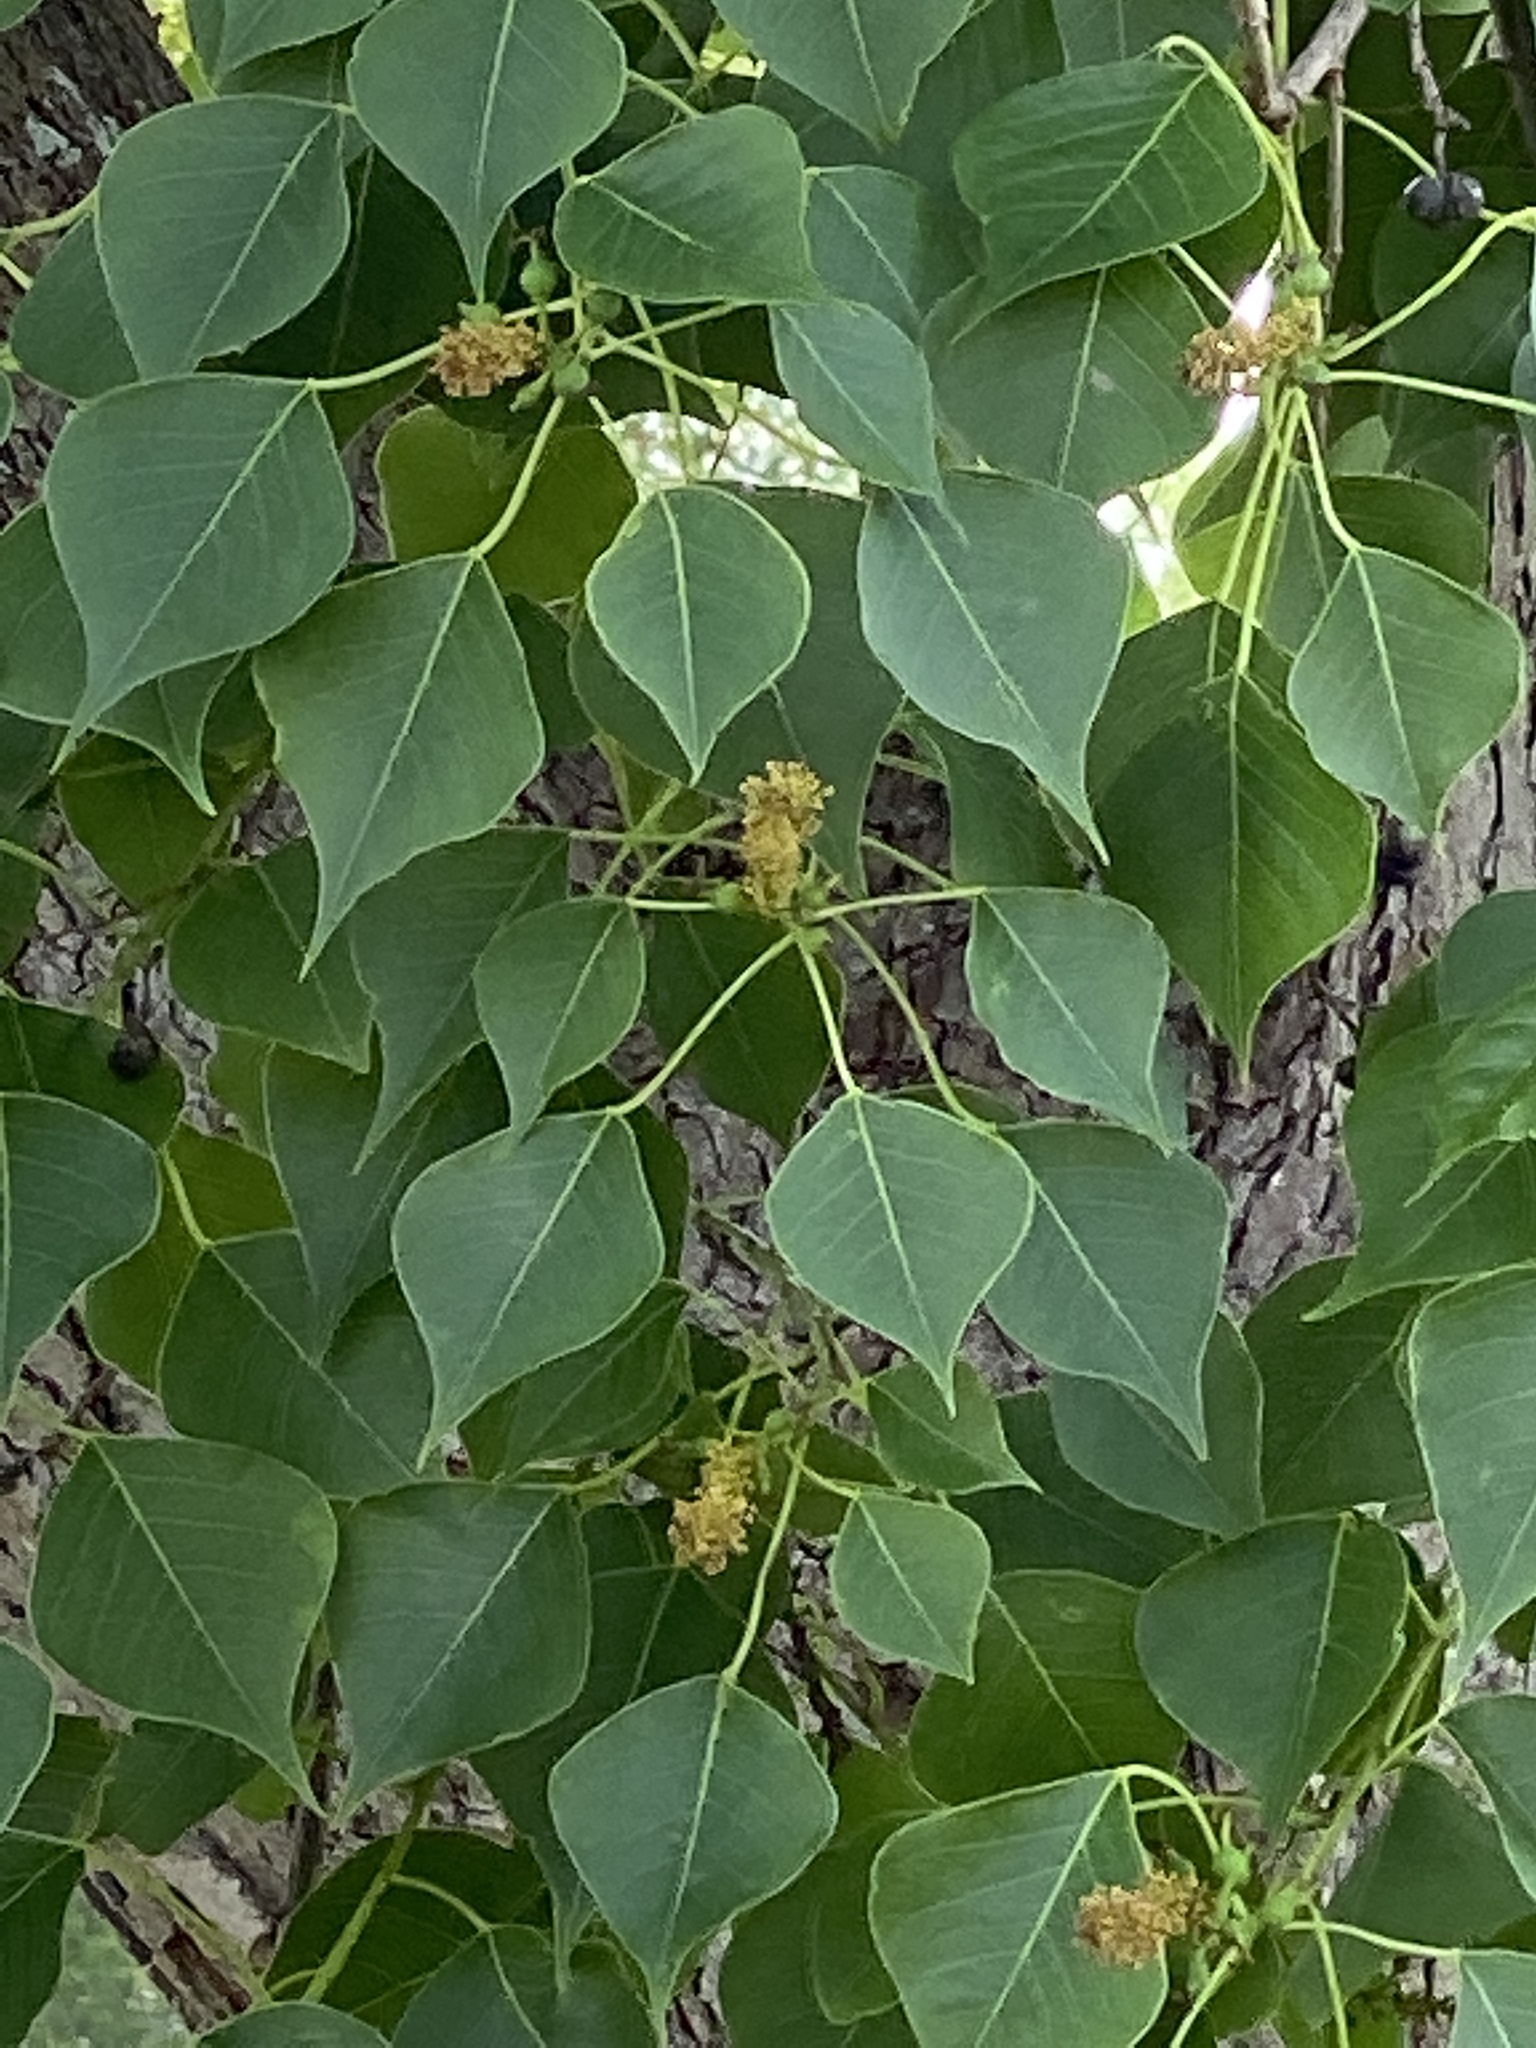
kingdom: Plantae
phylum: Tracheophyta
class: Magnoliopsida
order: Malpighiales
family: Euphorbiaceae
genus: Triadica
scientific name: Triadica sebifera
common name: Chinese tallow
